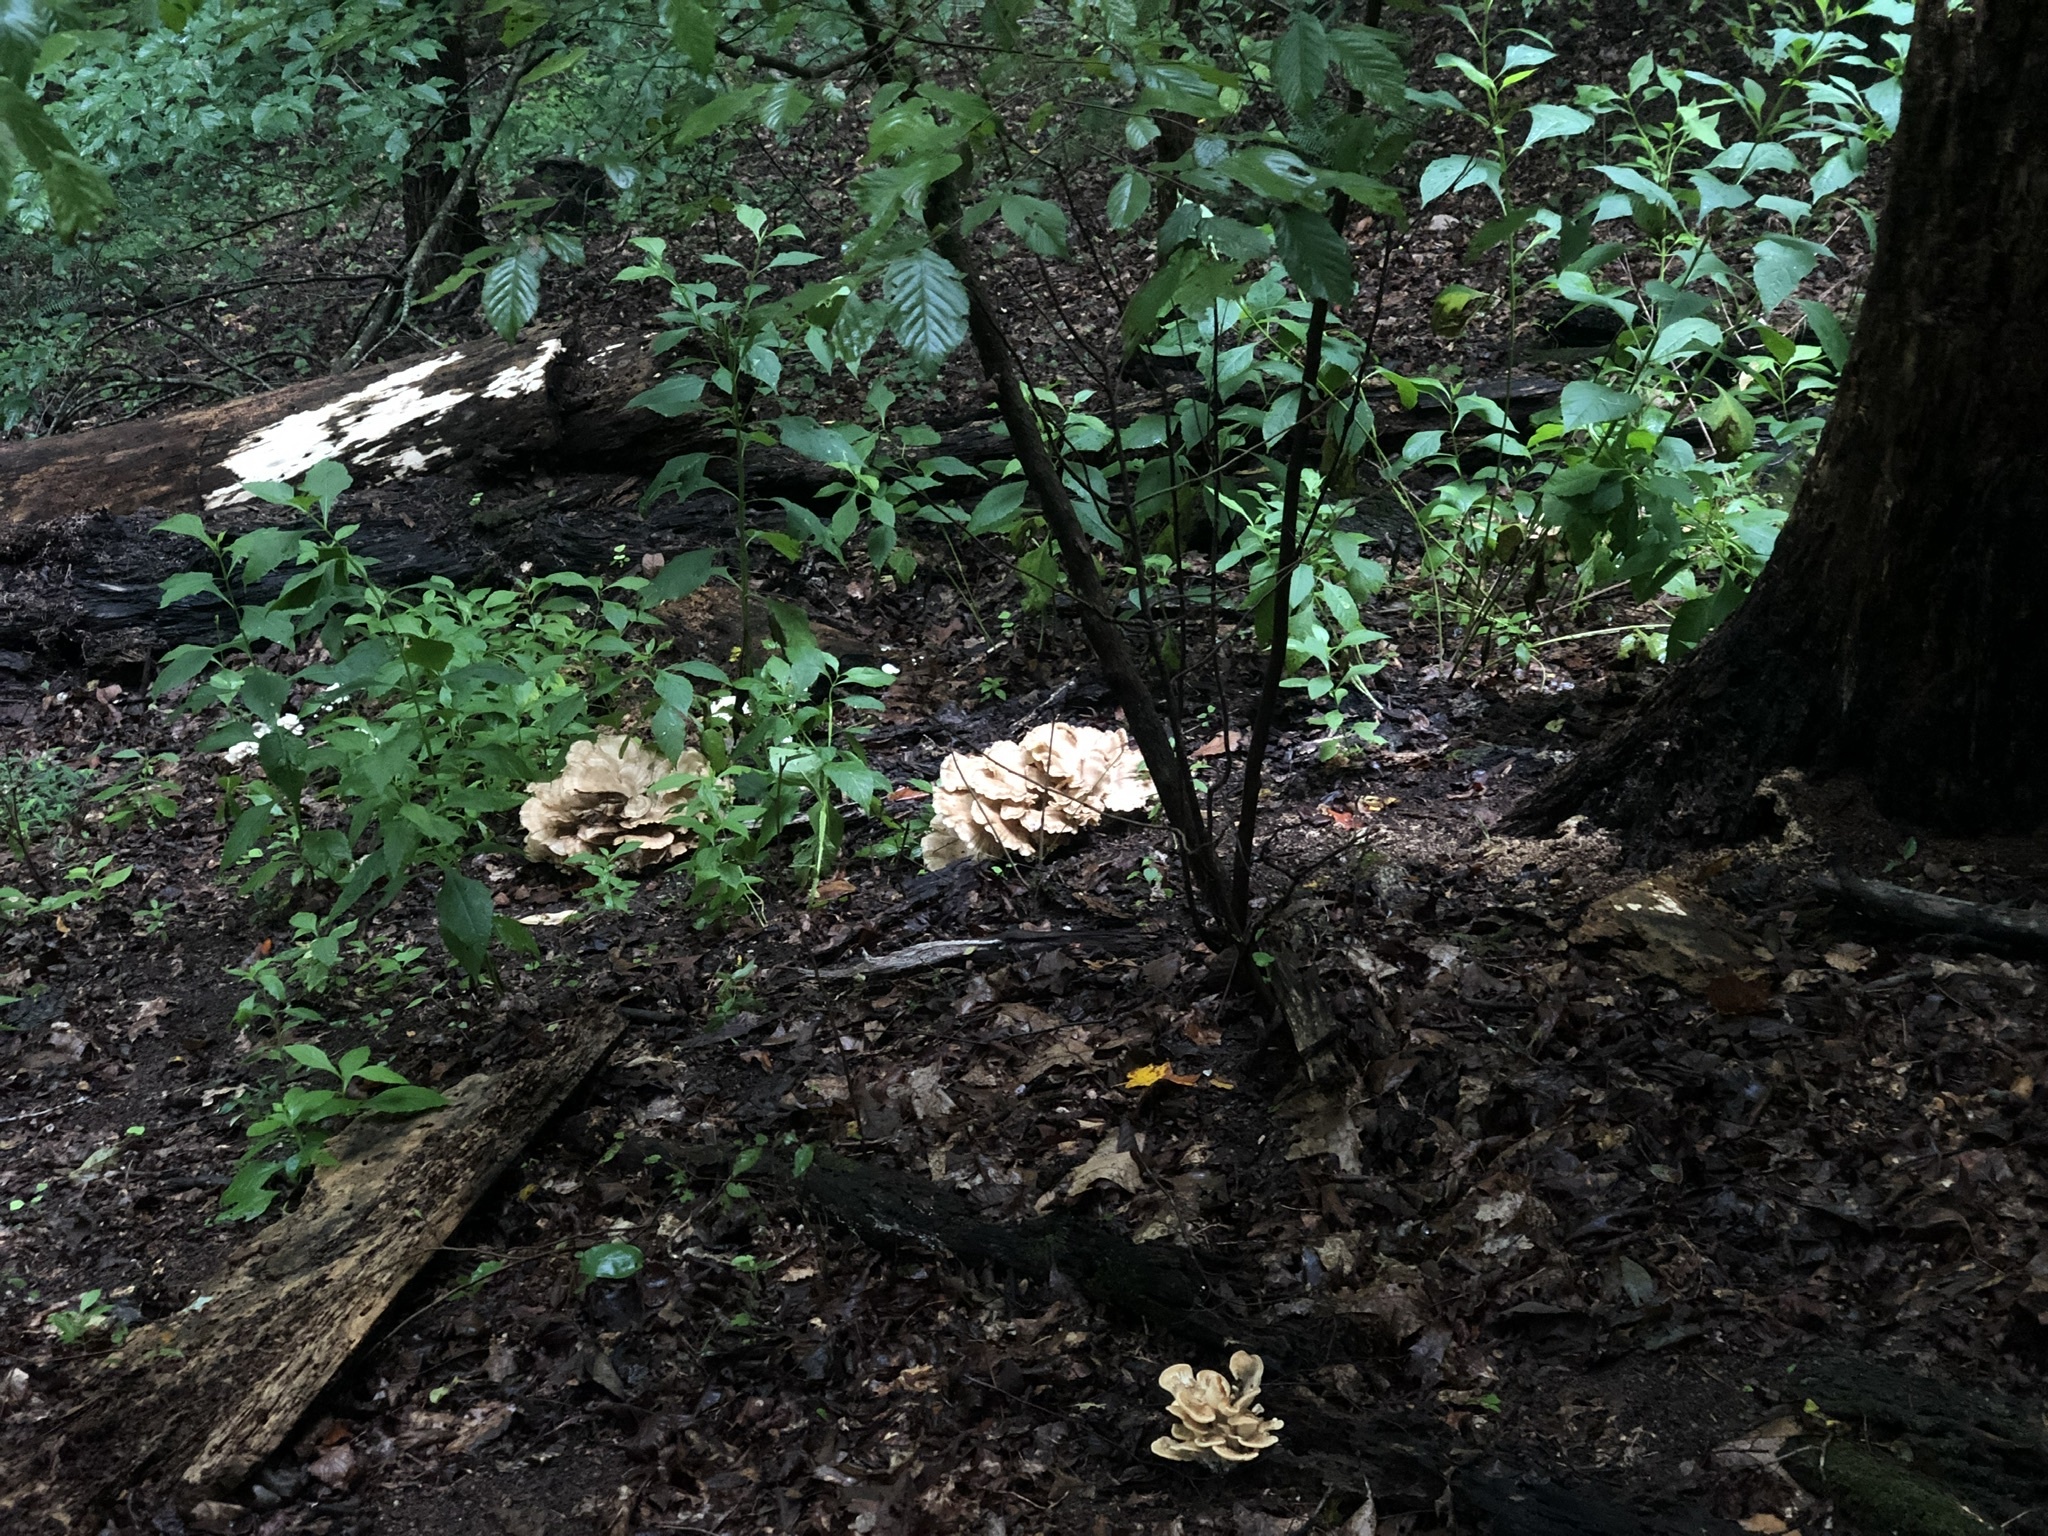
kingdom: Fungi
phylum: Basidiomycota
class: Agaricomycetes
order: Polyporales
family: Meripilaceae
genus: Meripilus
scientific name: Meripilus sumstinei
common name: Black-staining polypore
